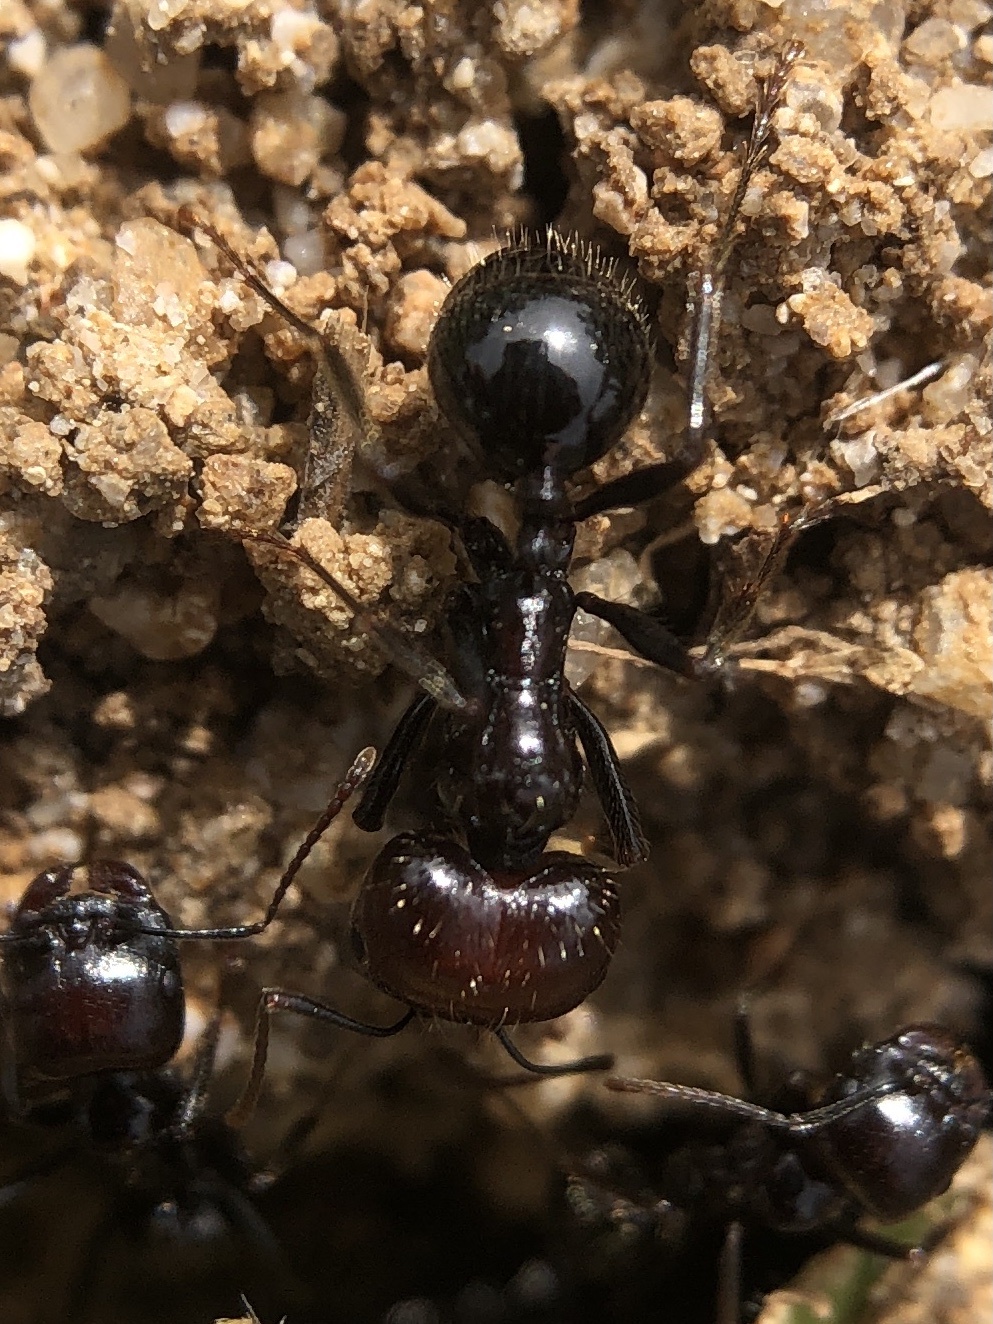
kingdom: Animalia
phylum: Arthropoda
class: Insecta
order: Hymenoptera
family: Formicidae
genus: Messor
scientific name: Messor barbarus
